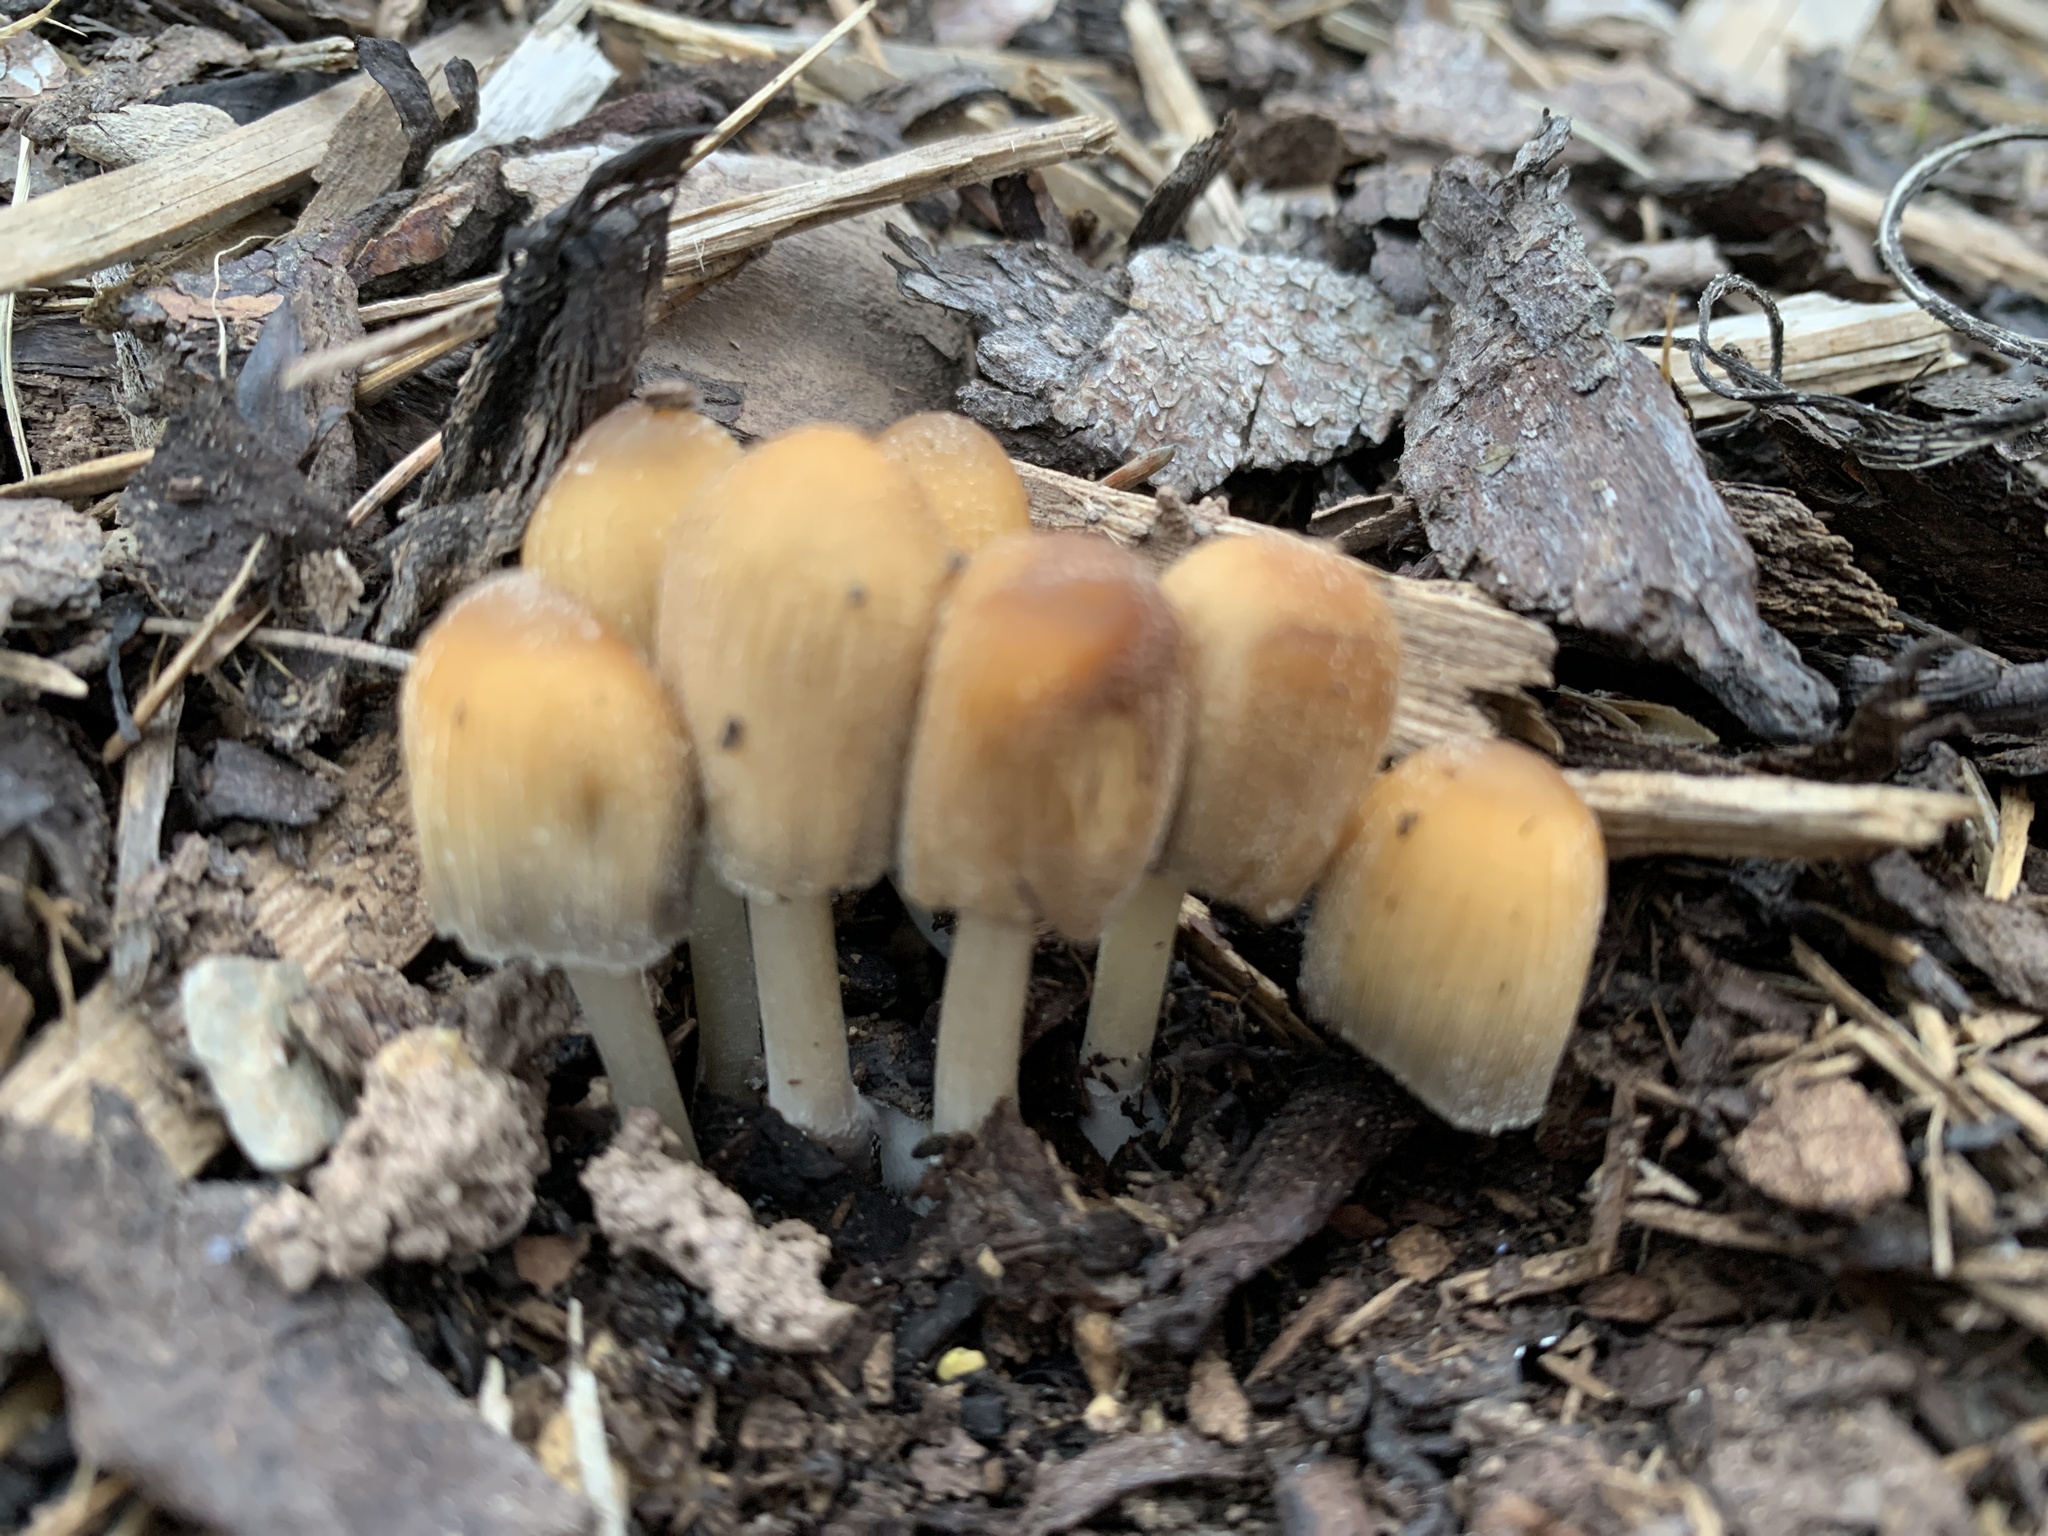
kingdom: Fungi
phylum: Basidiomycota
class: Agaricomycetes
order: Agaricales
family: Psathyrellaceae
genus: Coprinellus
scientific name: Coprinellus micaceus
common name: Glistening ink-cap
